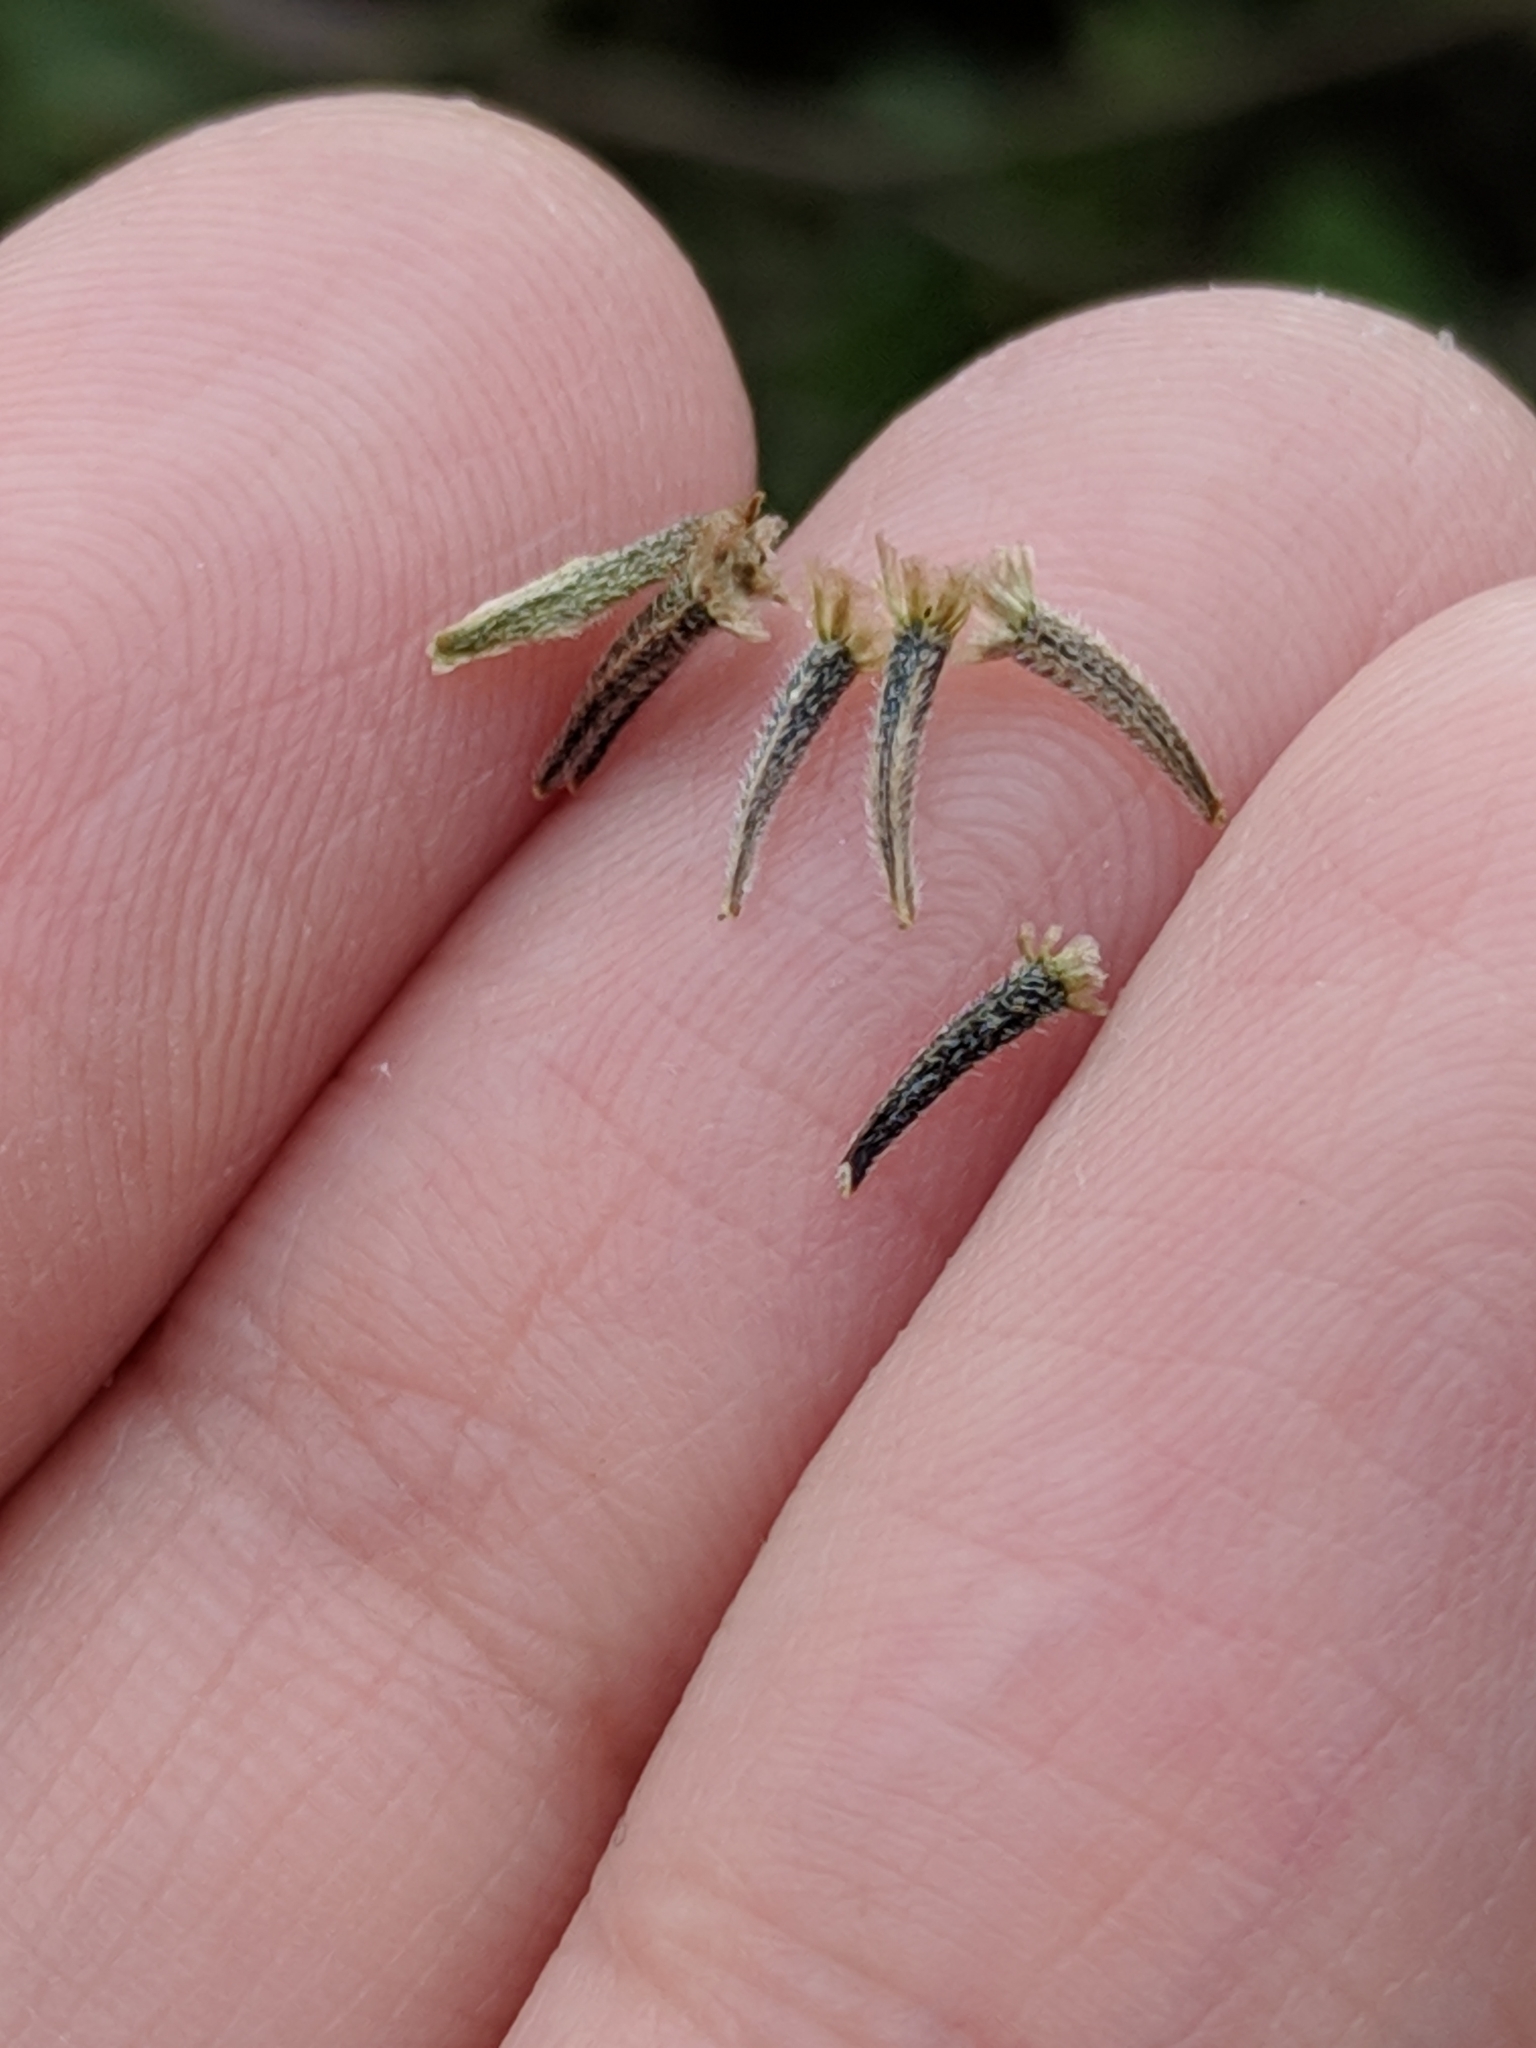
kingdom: Plantae
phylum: Tracheophyta
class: Magnoliopsida
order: Asterales
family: Asteraceae
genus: Palafoxia
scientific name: Palafoxia texana
